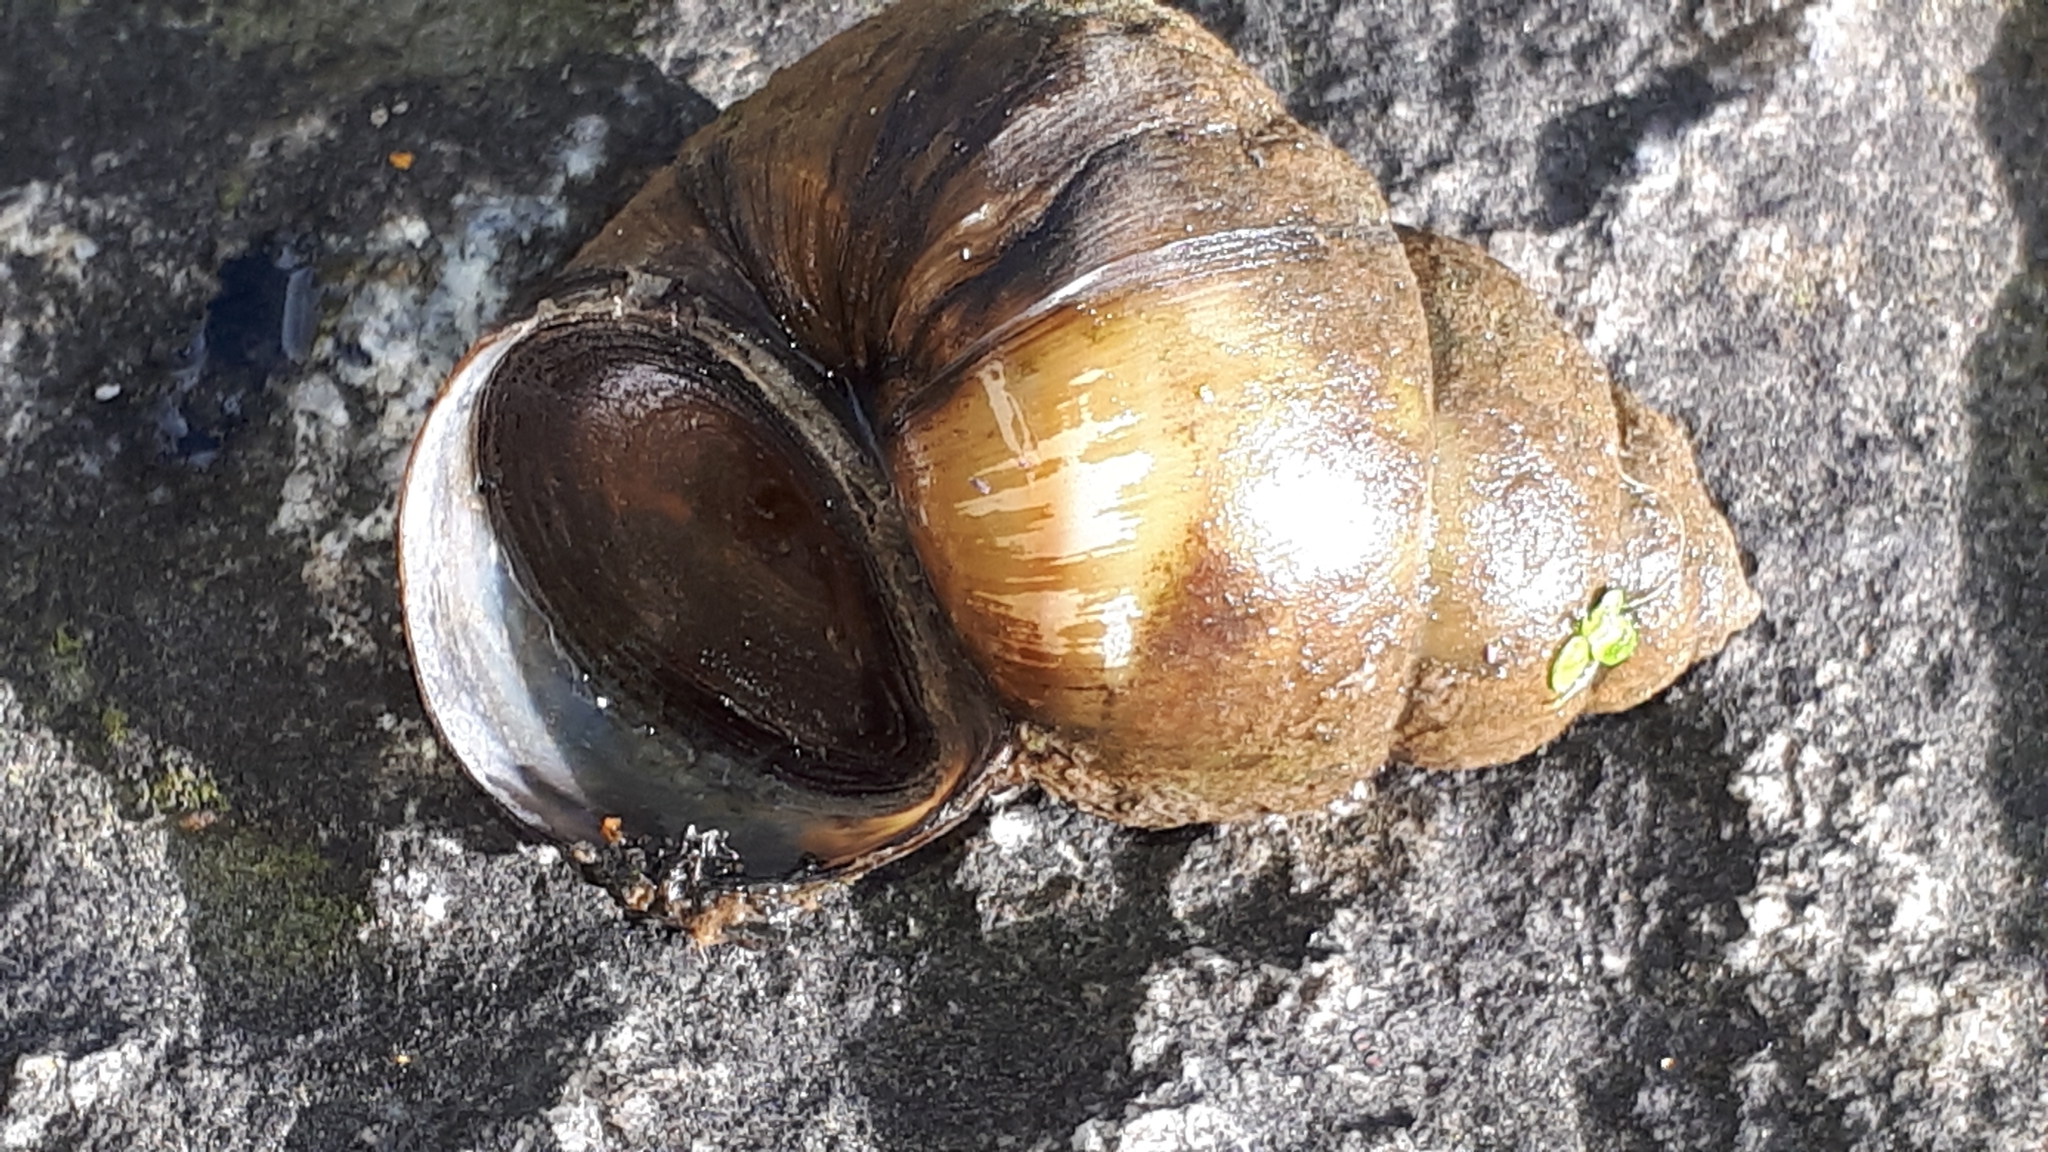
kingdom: Animalia
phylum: Mollusca
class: Gastropoda
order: Architaenioglossa
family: Viviparidae
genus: Viviparus
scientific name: Viviparus acerosus
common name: Danube river snail
